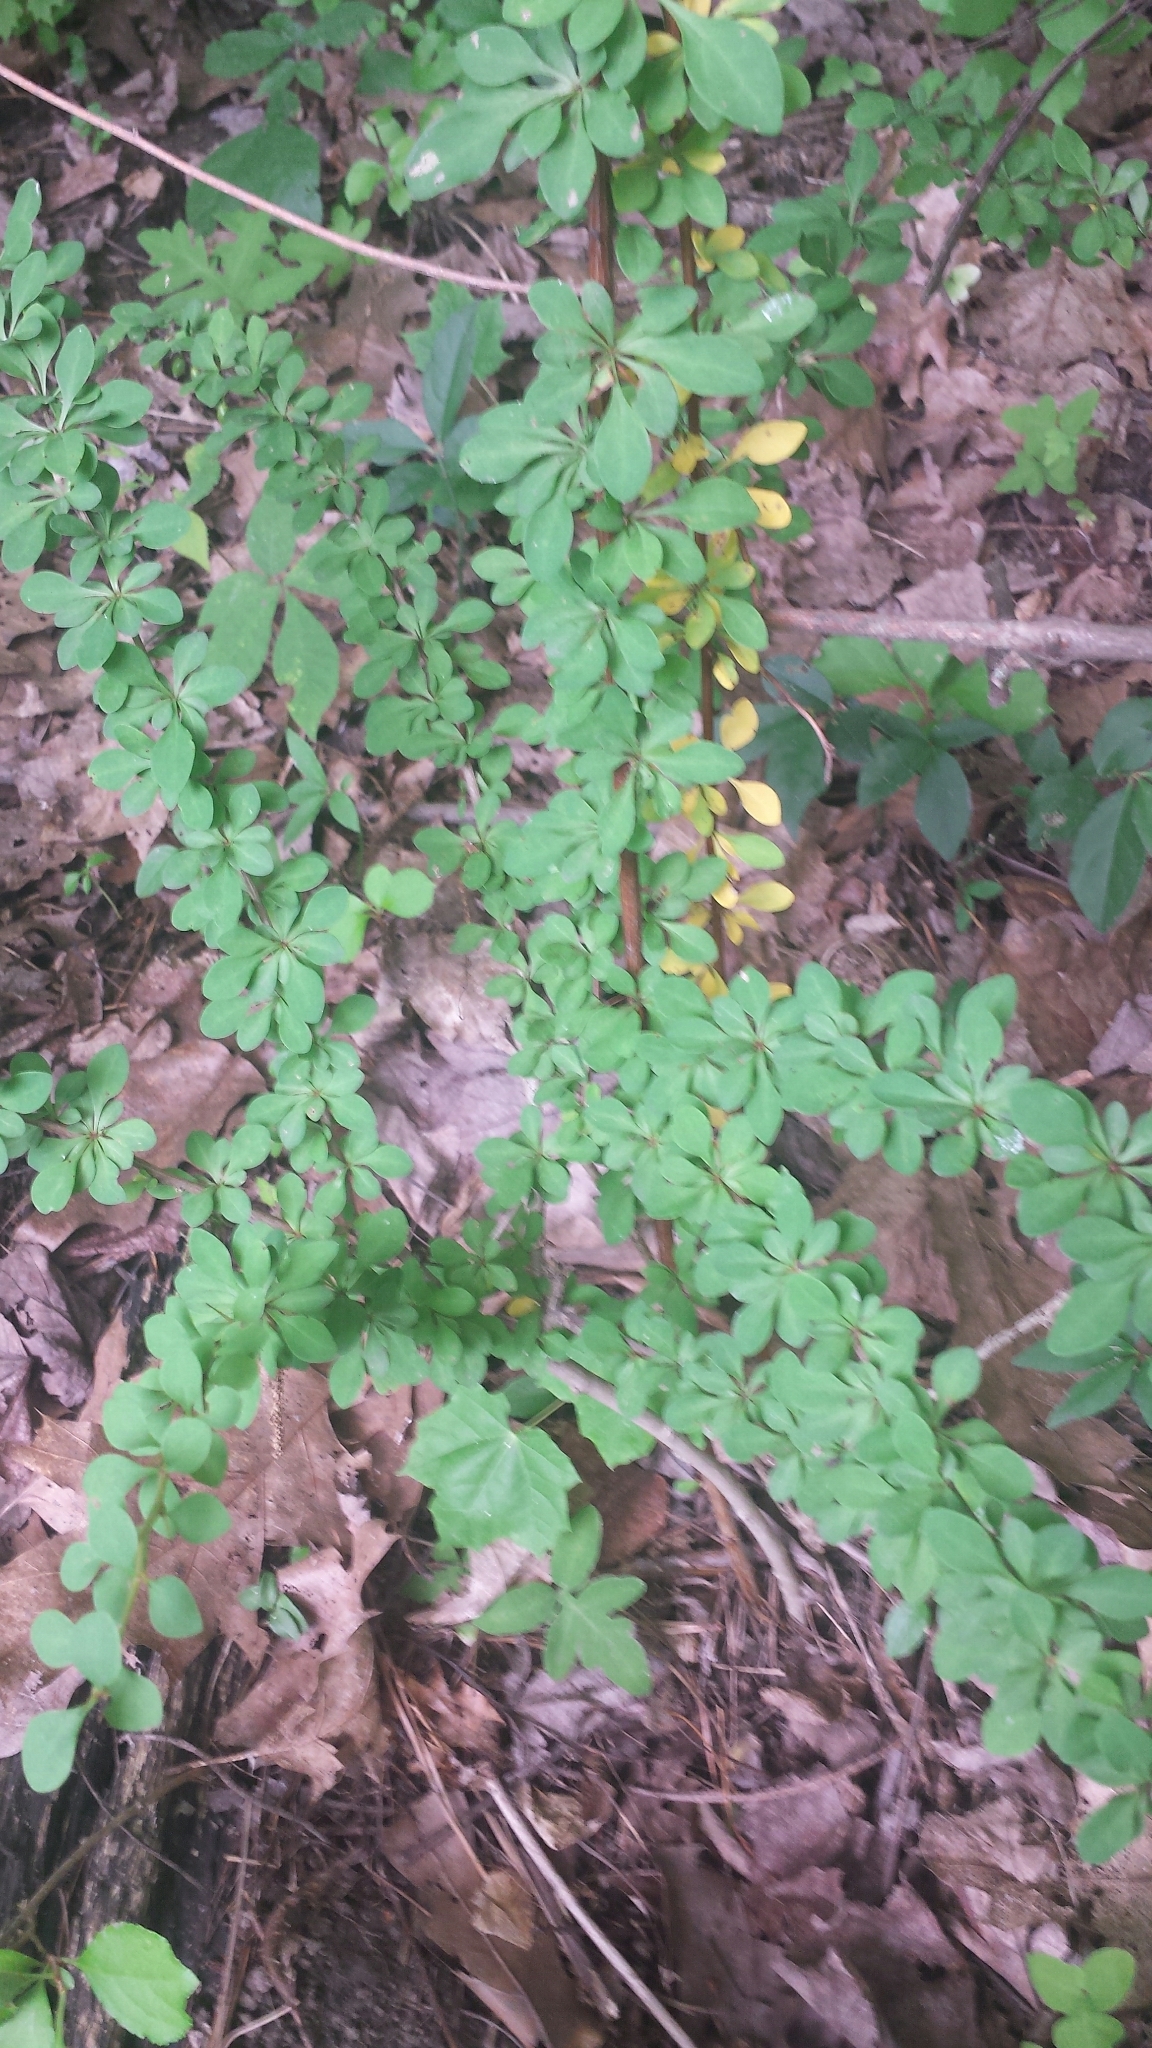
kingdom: Plantae
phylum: Tracheophyta
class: Magnoliopsida
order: Ranunculales
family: Berberidaceae
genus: Berberis
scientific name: Berberis thunbergii
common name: Japanese barberry
